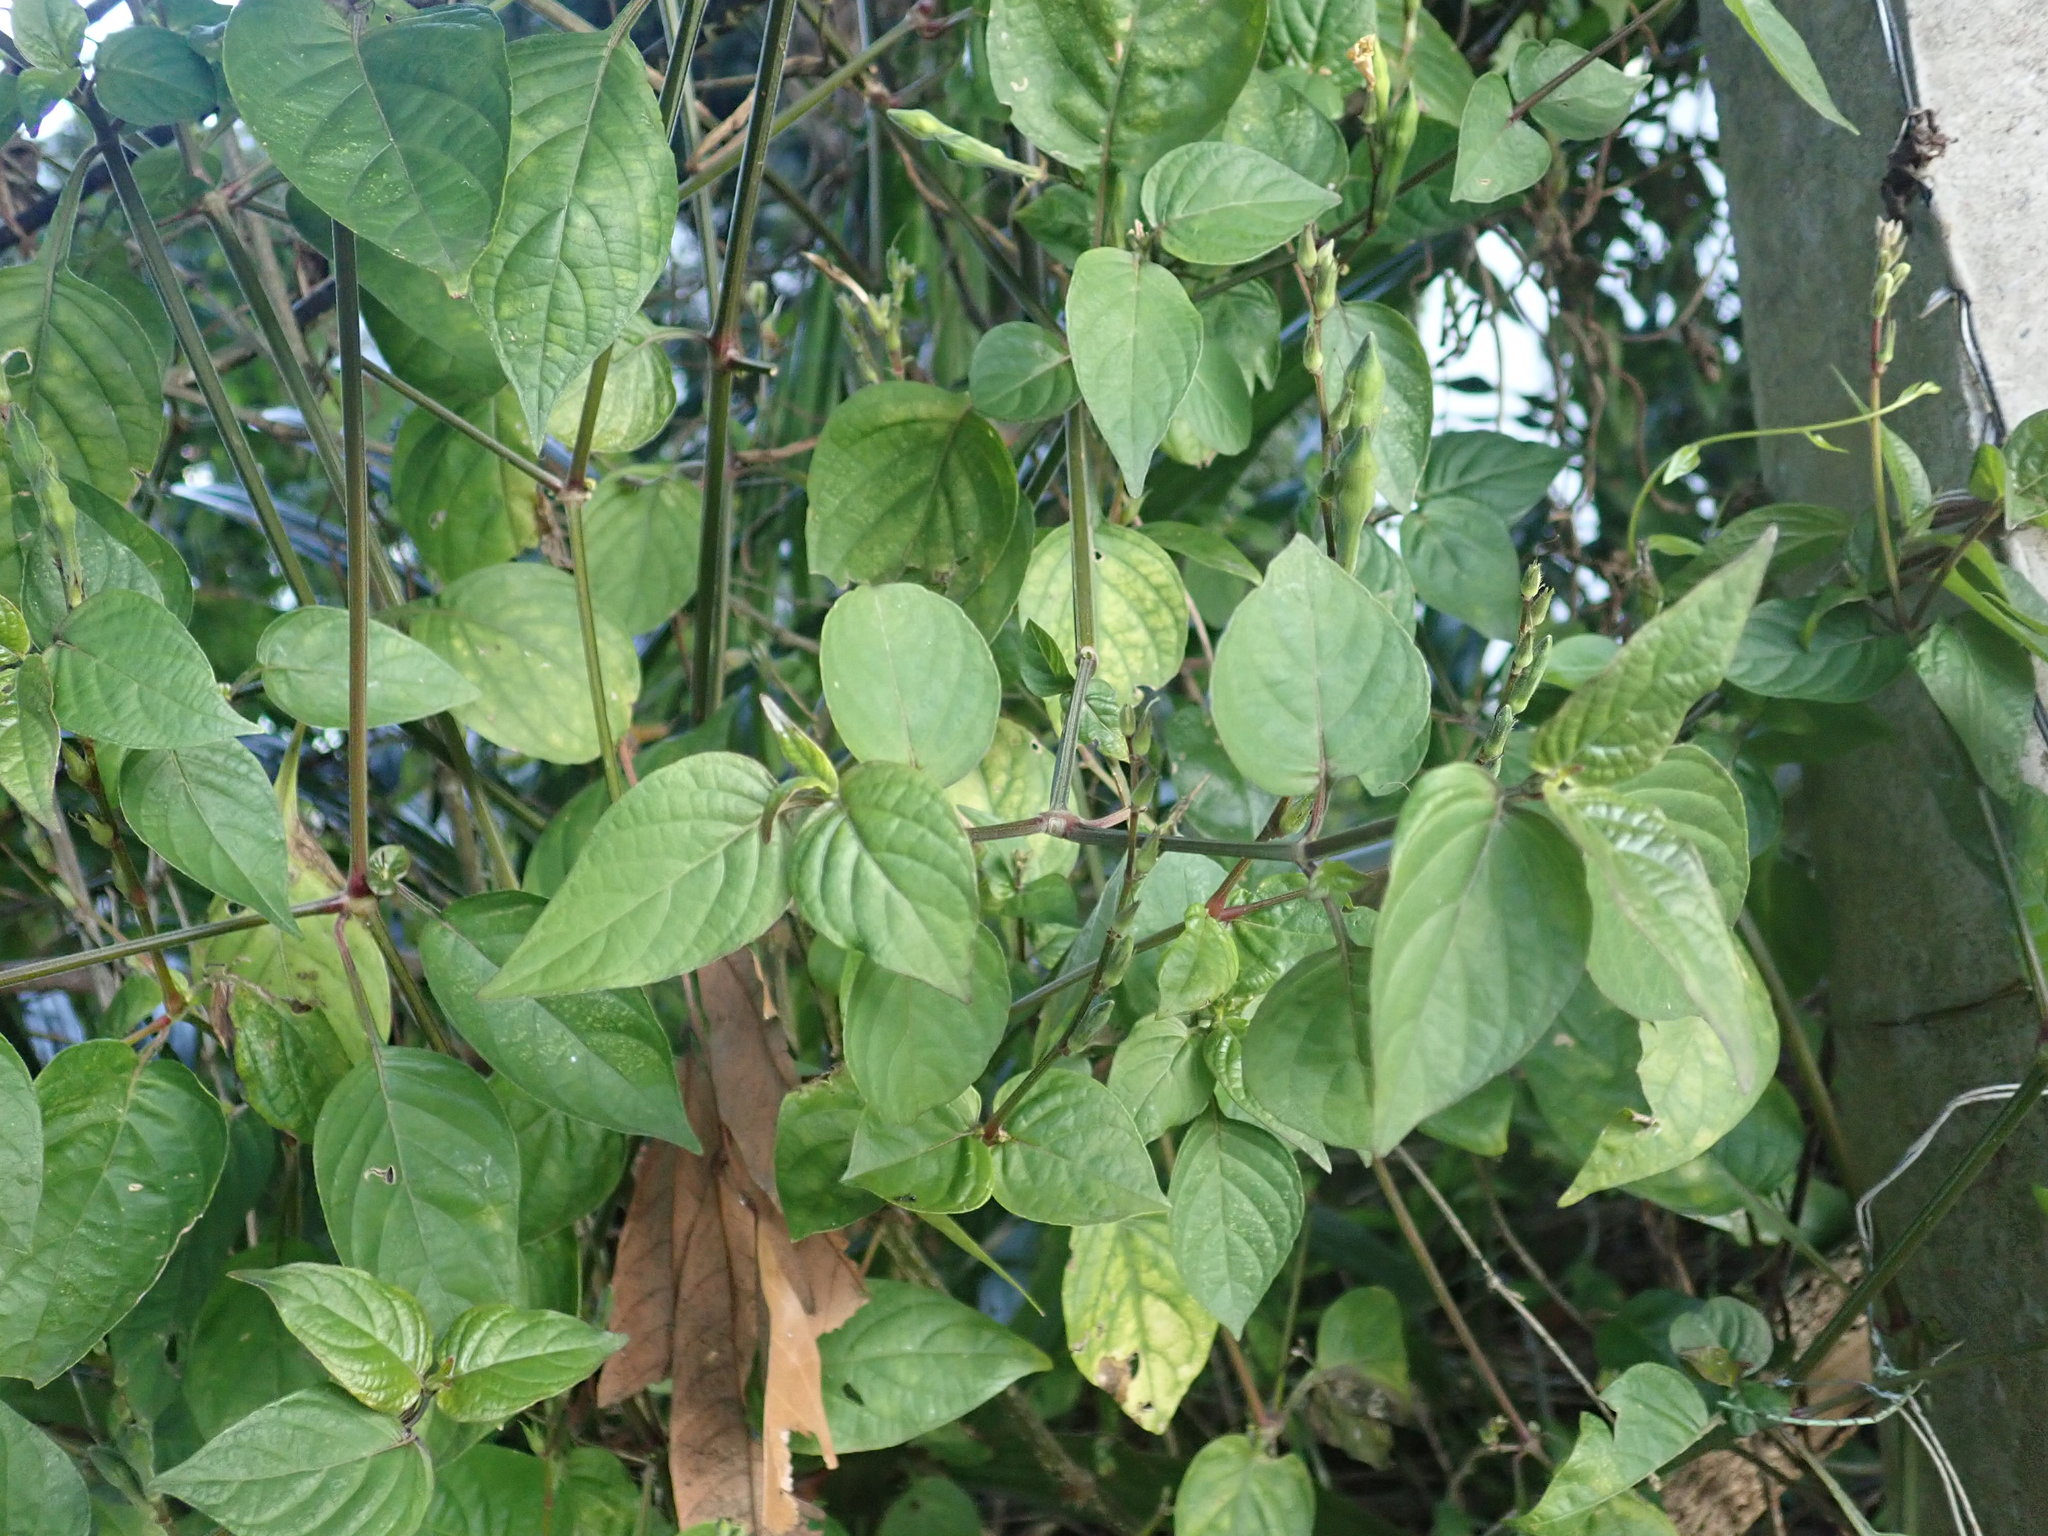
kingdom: Plantae
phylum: Tracheophyta
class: Magnoliopsida
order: Lamiales
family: Acanthaceae
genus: Asystasia
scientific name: Asystasia intrusa
